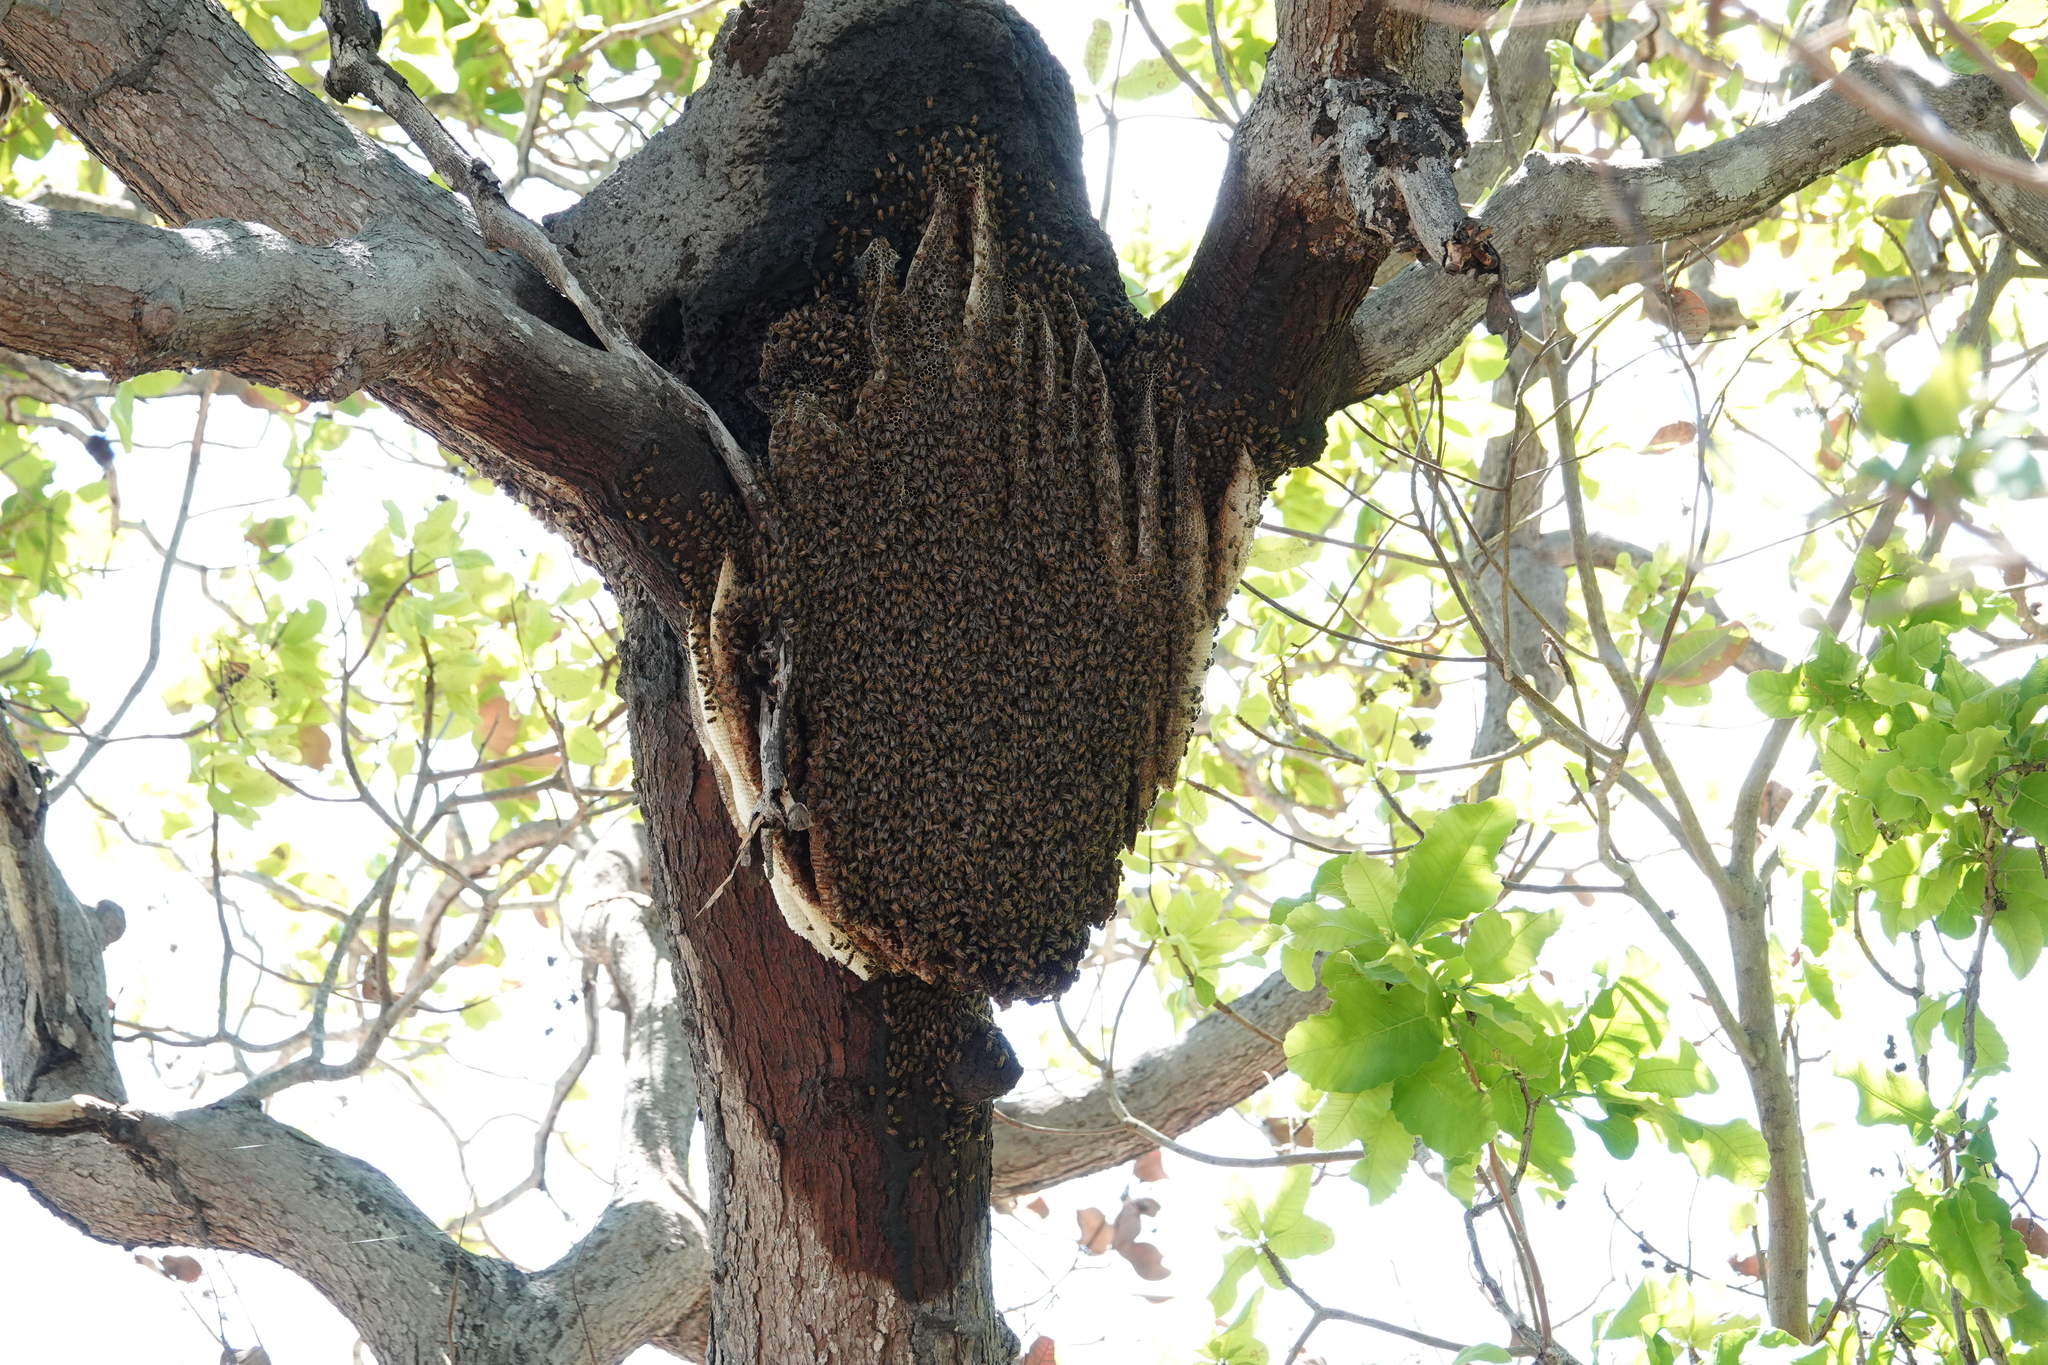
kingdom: Animalia
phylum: Arthropoda
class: Insecta
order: Hymenoptera
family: Apidae
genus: Apis
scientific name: Apis mellifera
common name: Honey bee
